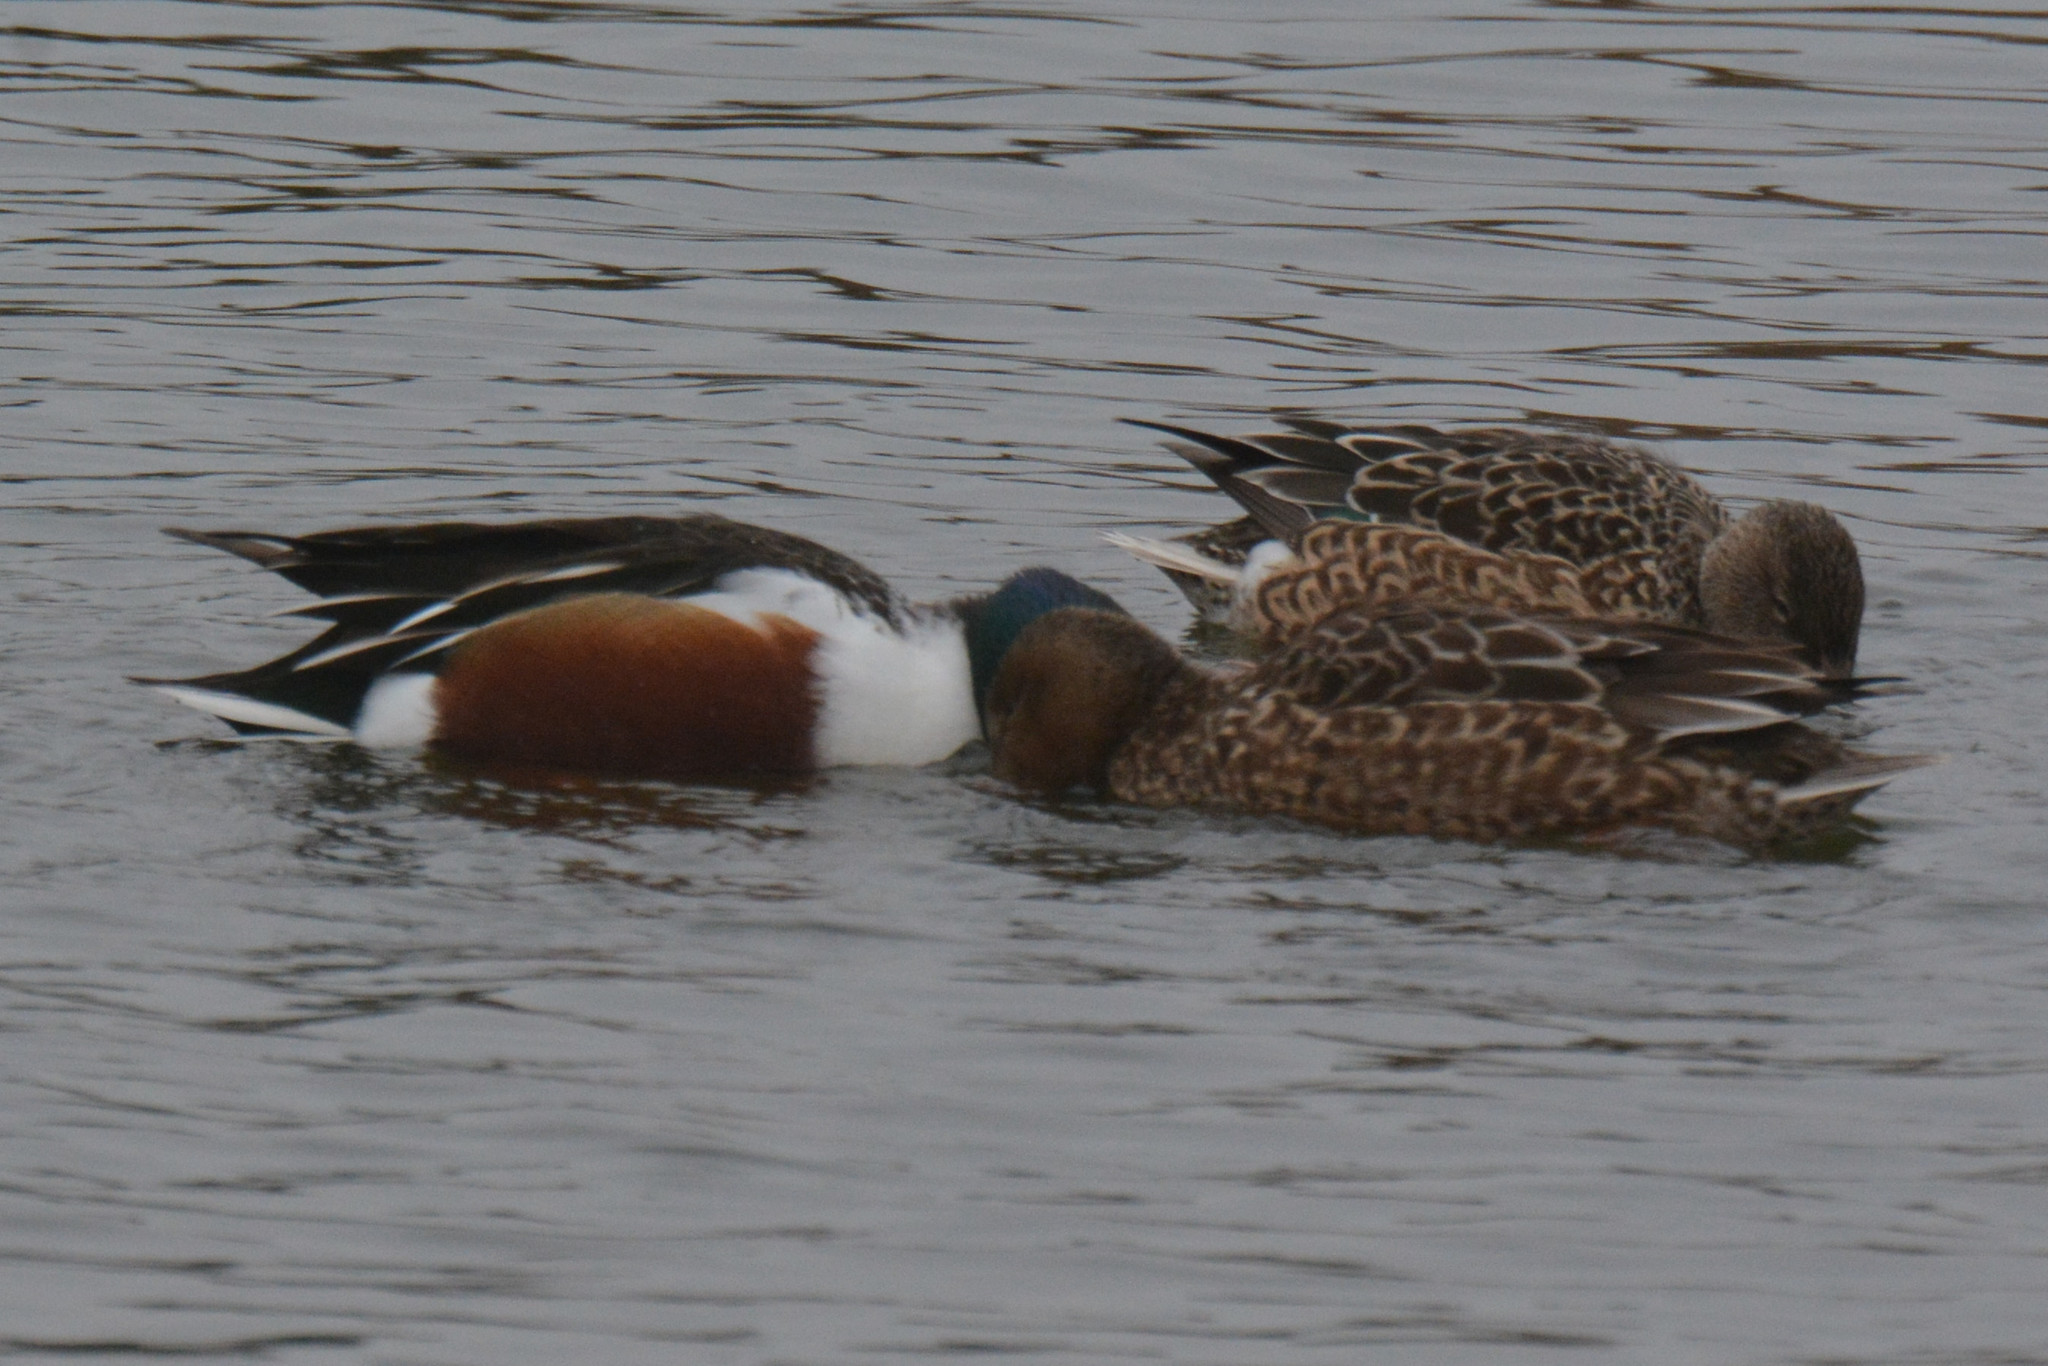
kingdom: Animalia
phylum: Chordata
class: Aves
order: Anseriformes
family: Anatidae
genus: Spatula
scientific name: Spatula clypeata
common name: Northern shoveler
